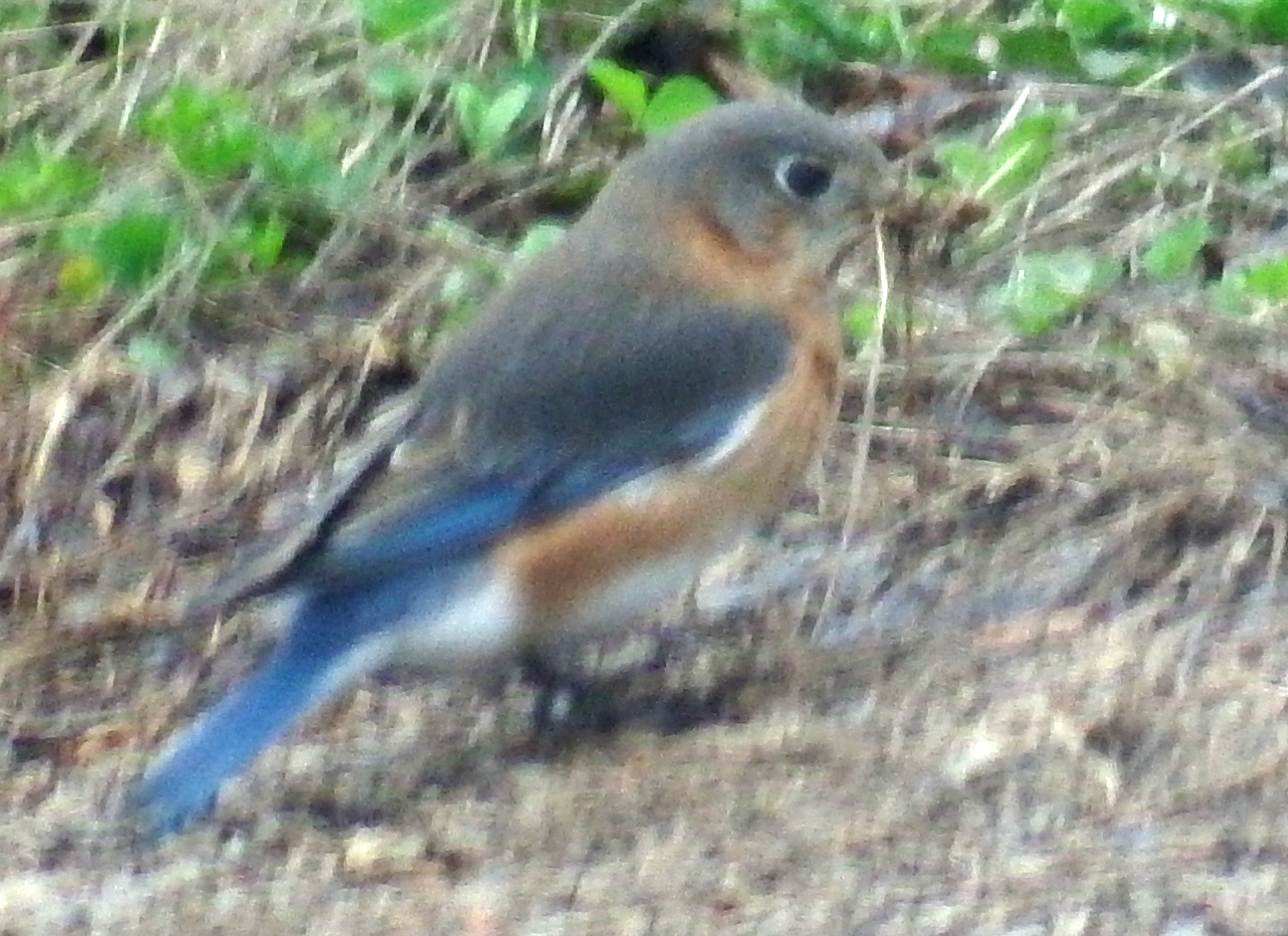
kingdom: Animalia
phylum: Chordata
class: Aves
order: Passeriformes
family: Turdidae
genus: Sialia
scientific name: Sialia sialis
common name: Eastern bluebird
